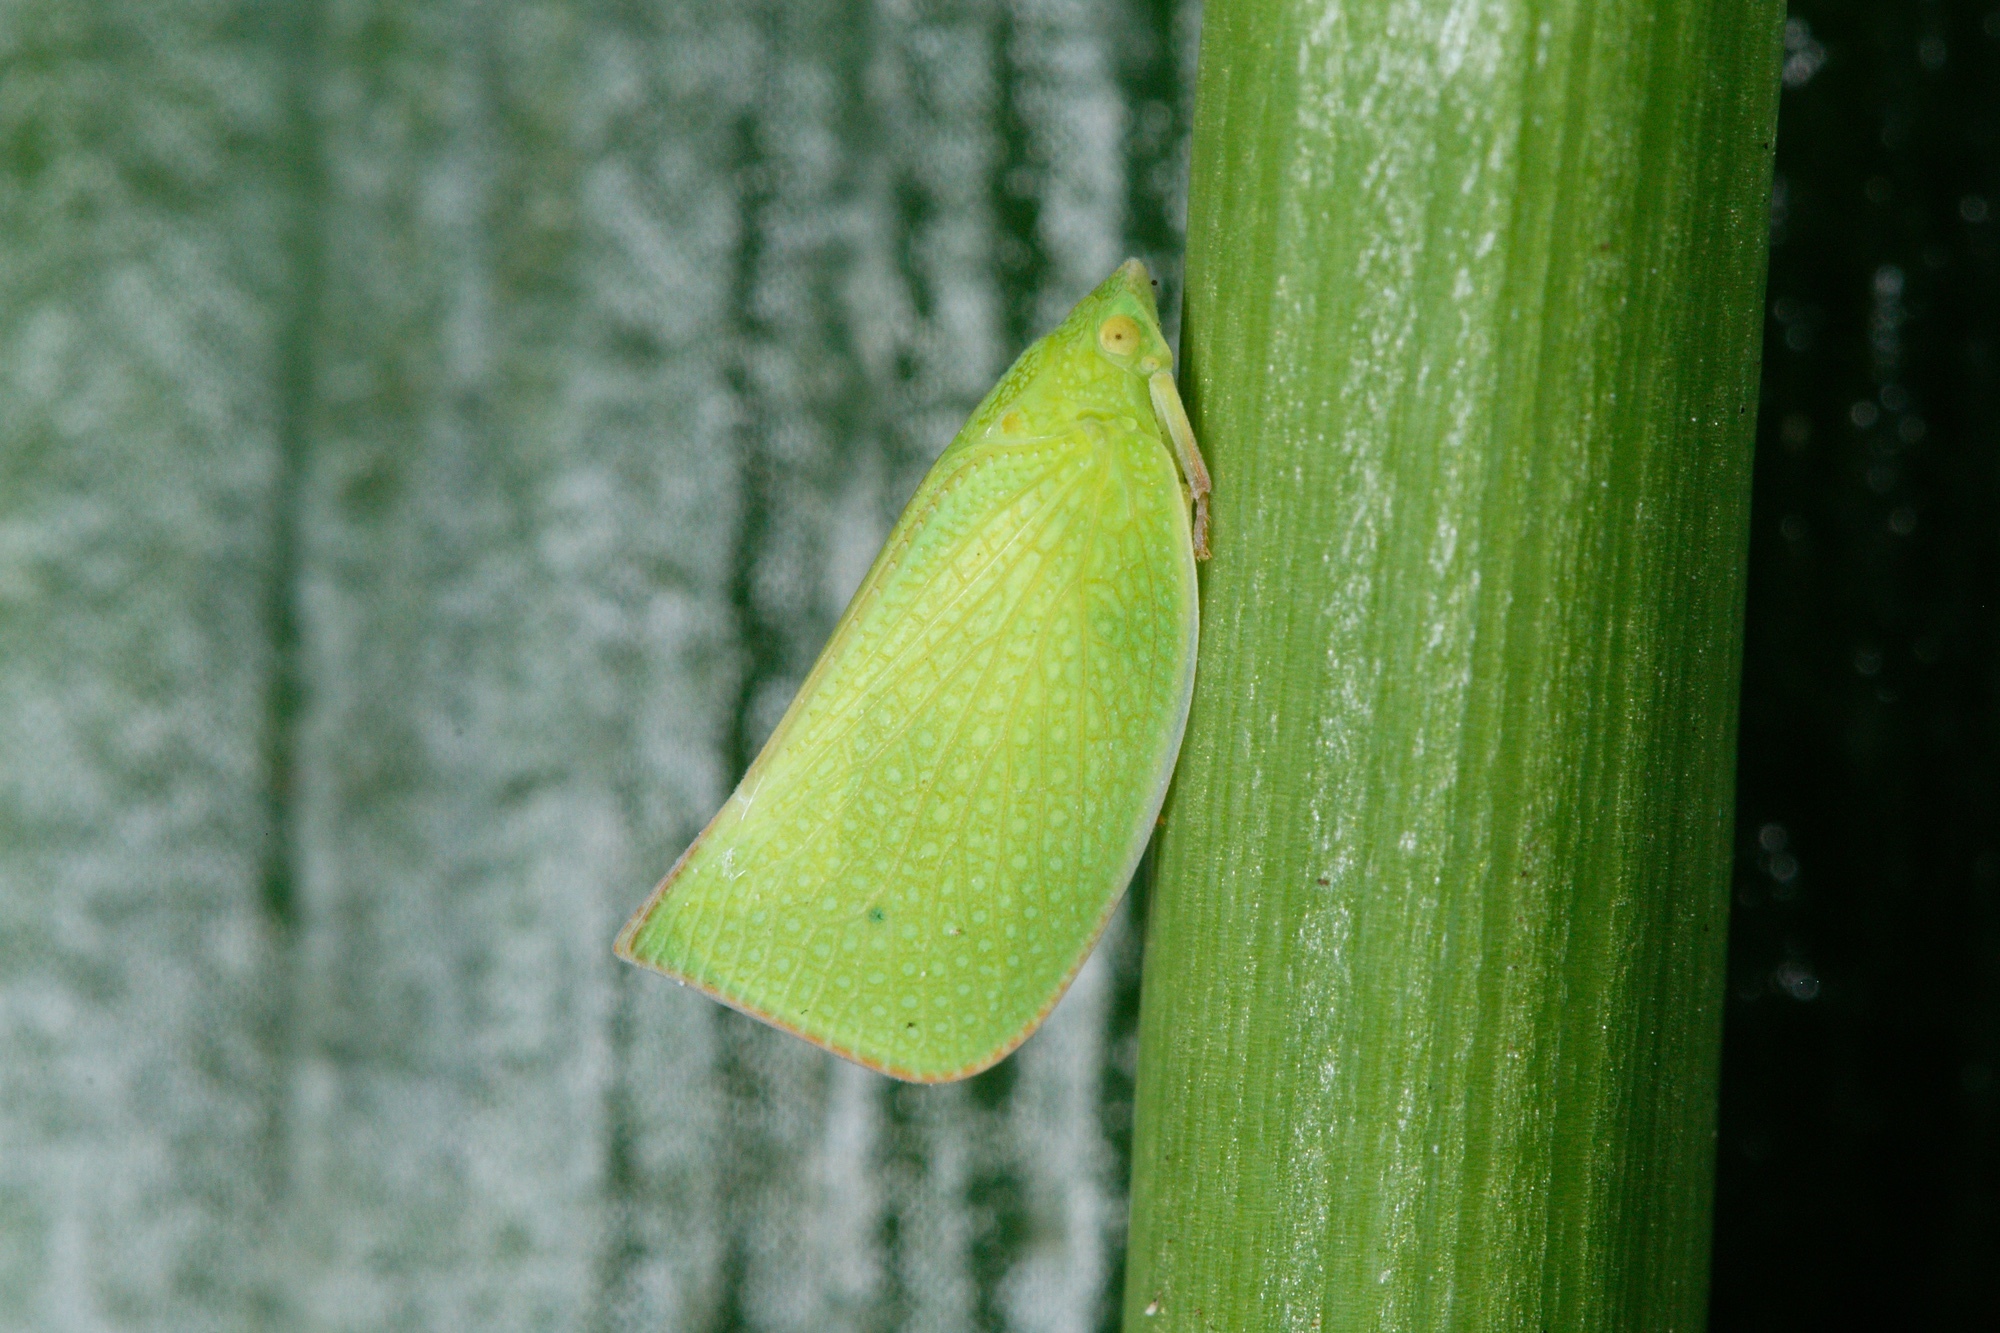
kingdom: Animalia
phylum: Arthropoda
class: Insecta
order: Hemiptera
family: Flatidae
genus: Siphanta
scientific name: Siphanta acuta
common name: Torpedo bug
